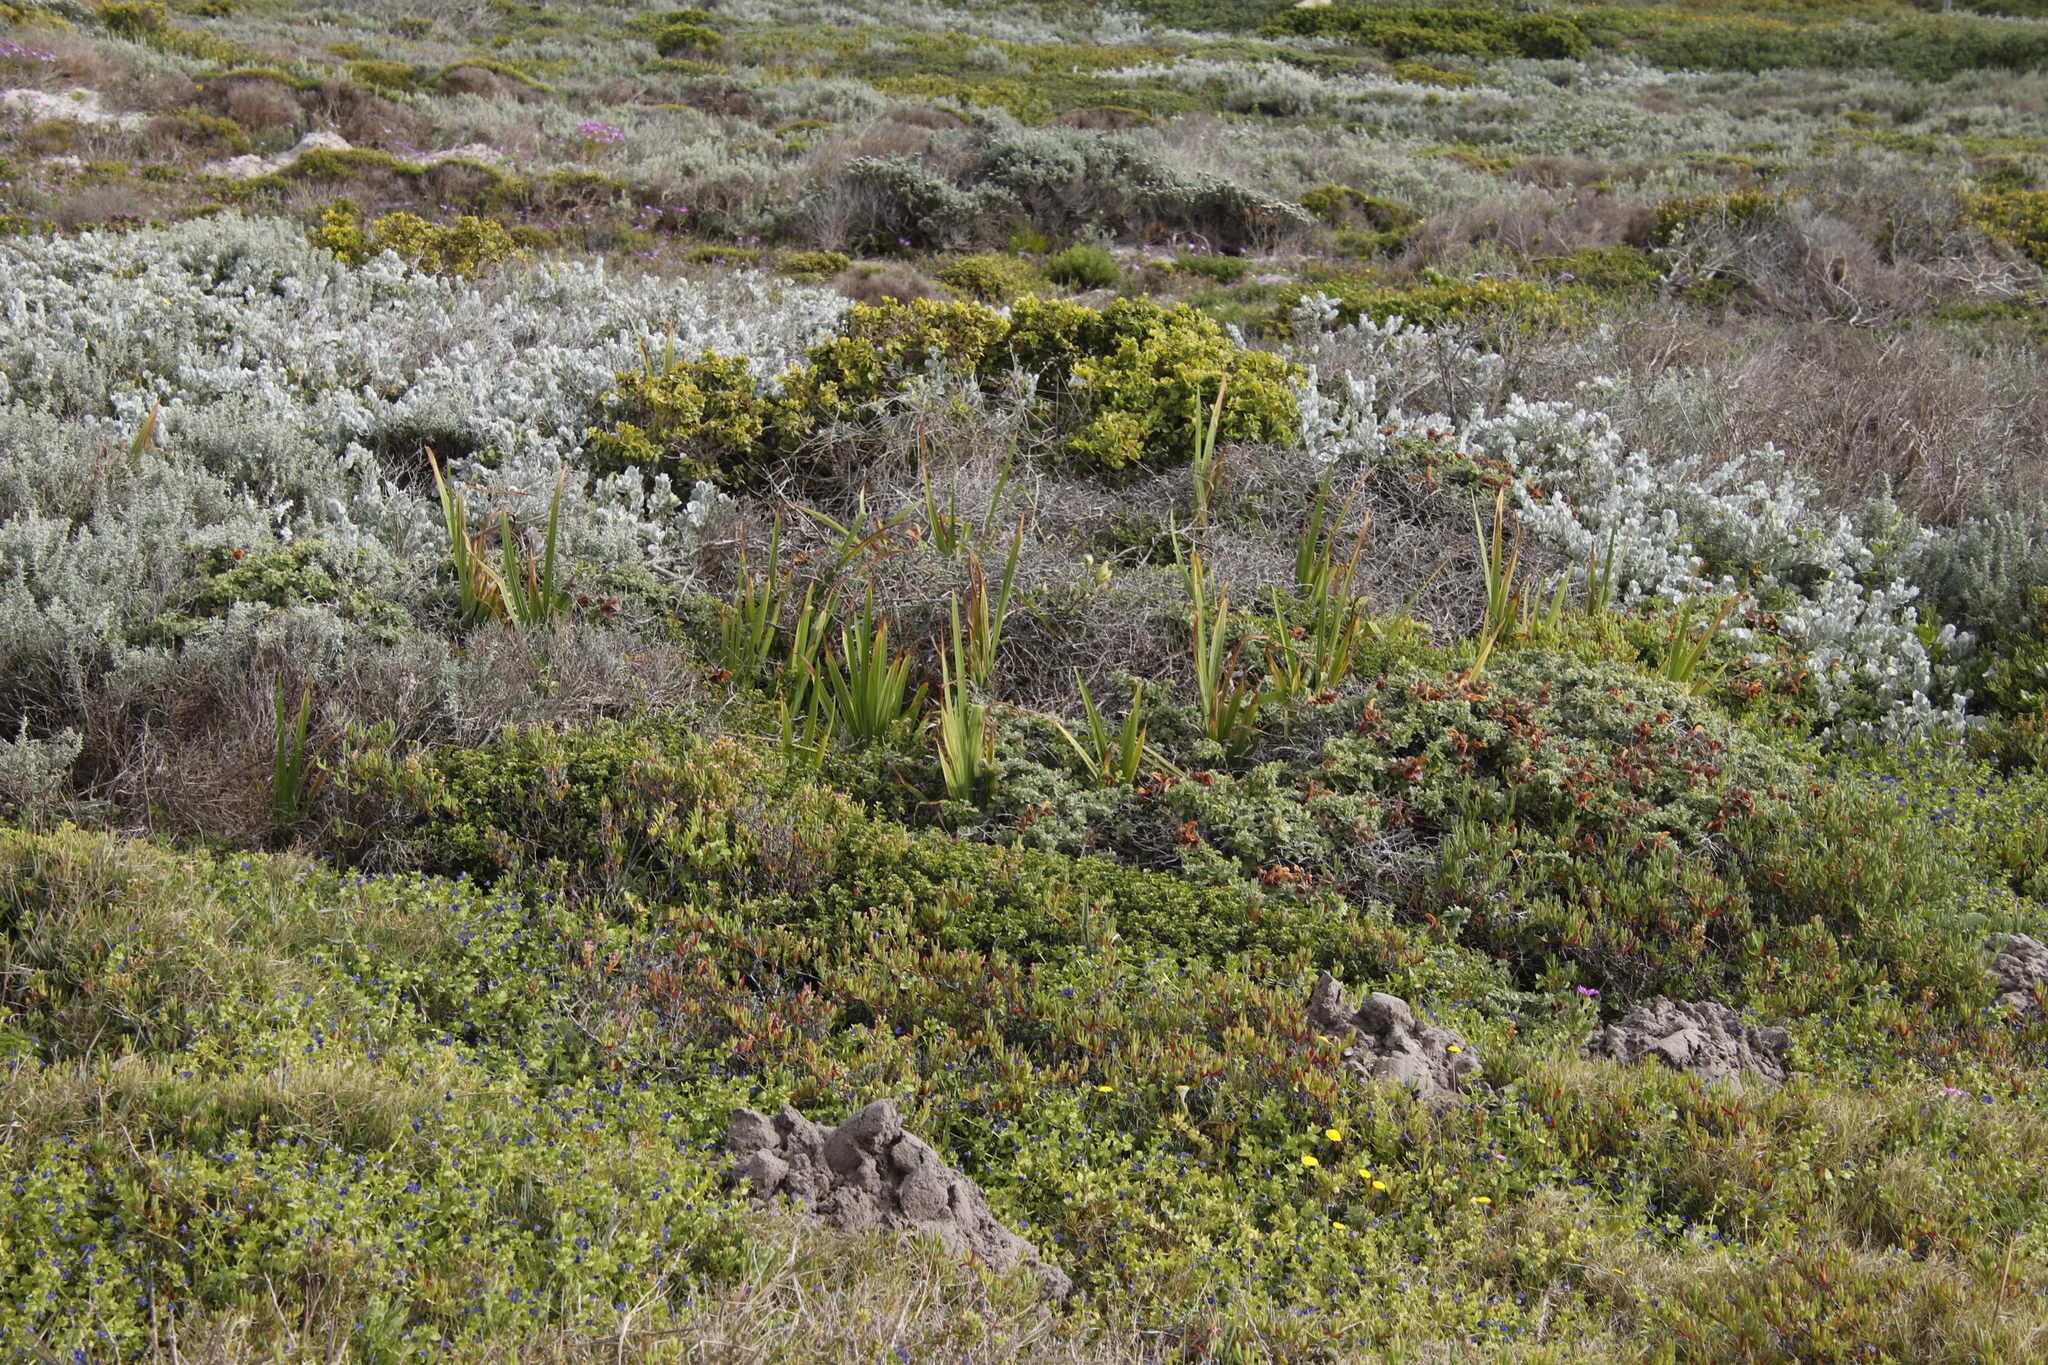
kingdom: Plantae
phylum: Tracheophyta
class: Liliopsida
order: Asparagales
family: Iridaceae
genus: Chasmanthe
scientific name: Chasmanthe aethiopica
